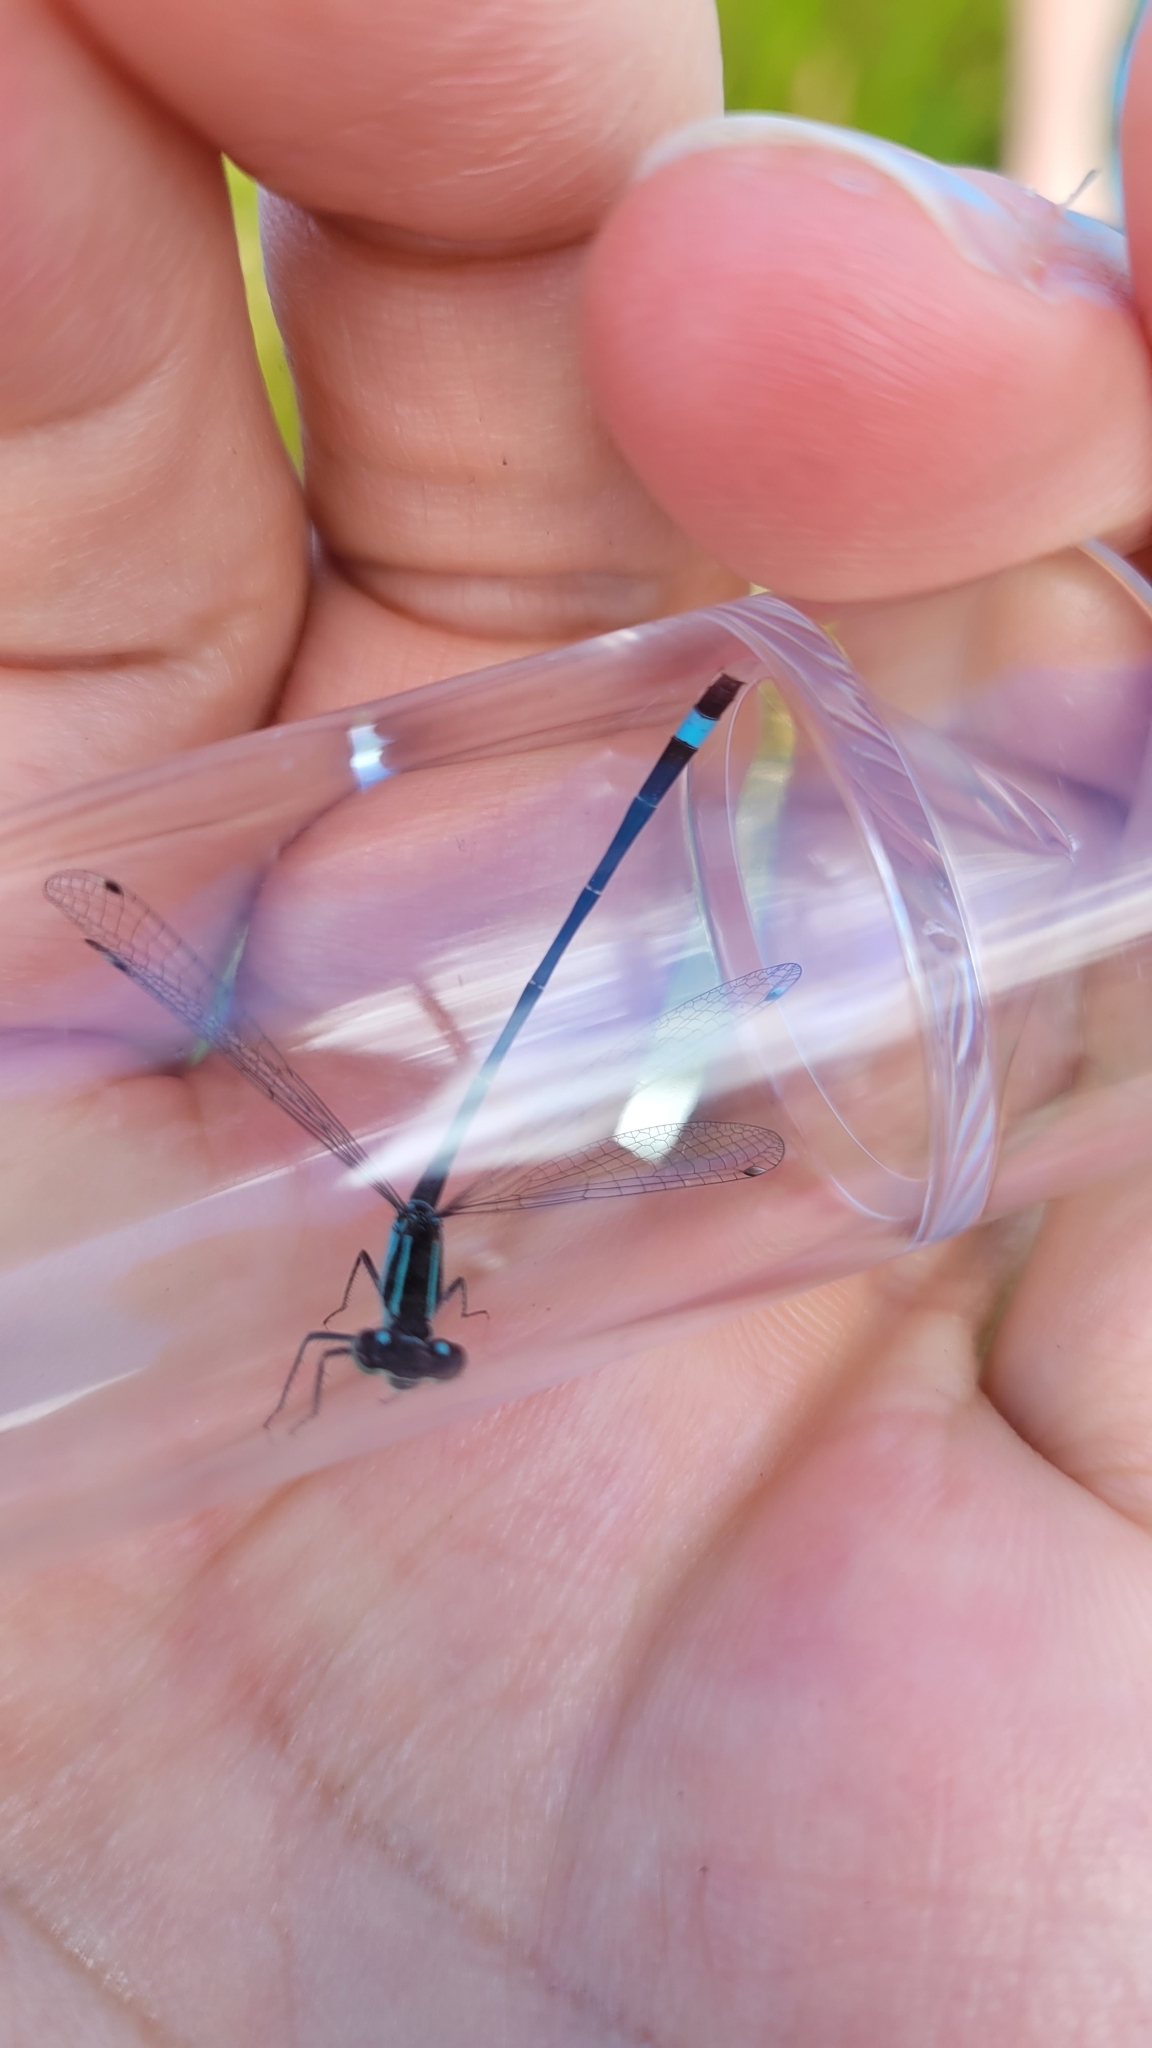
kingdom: Animalia
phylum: Arthropoda
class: Insecta
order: Odonata
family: Coenagrionidae
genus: Ischnura
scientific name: Ischnura elegans
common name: Blue-tailed damselfly
